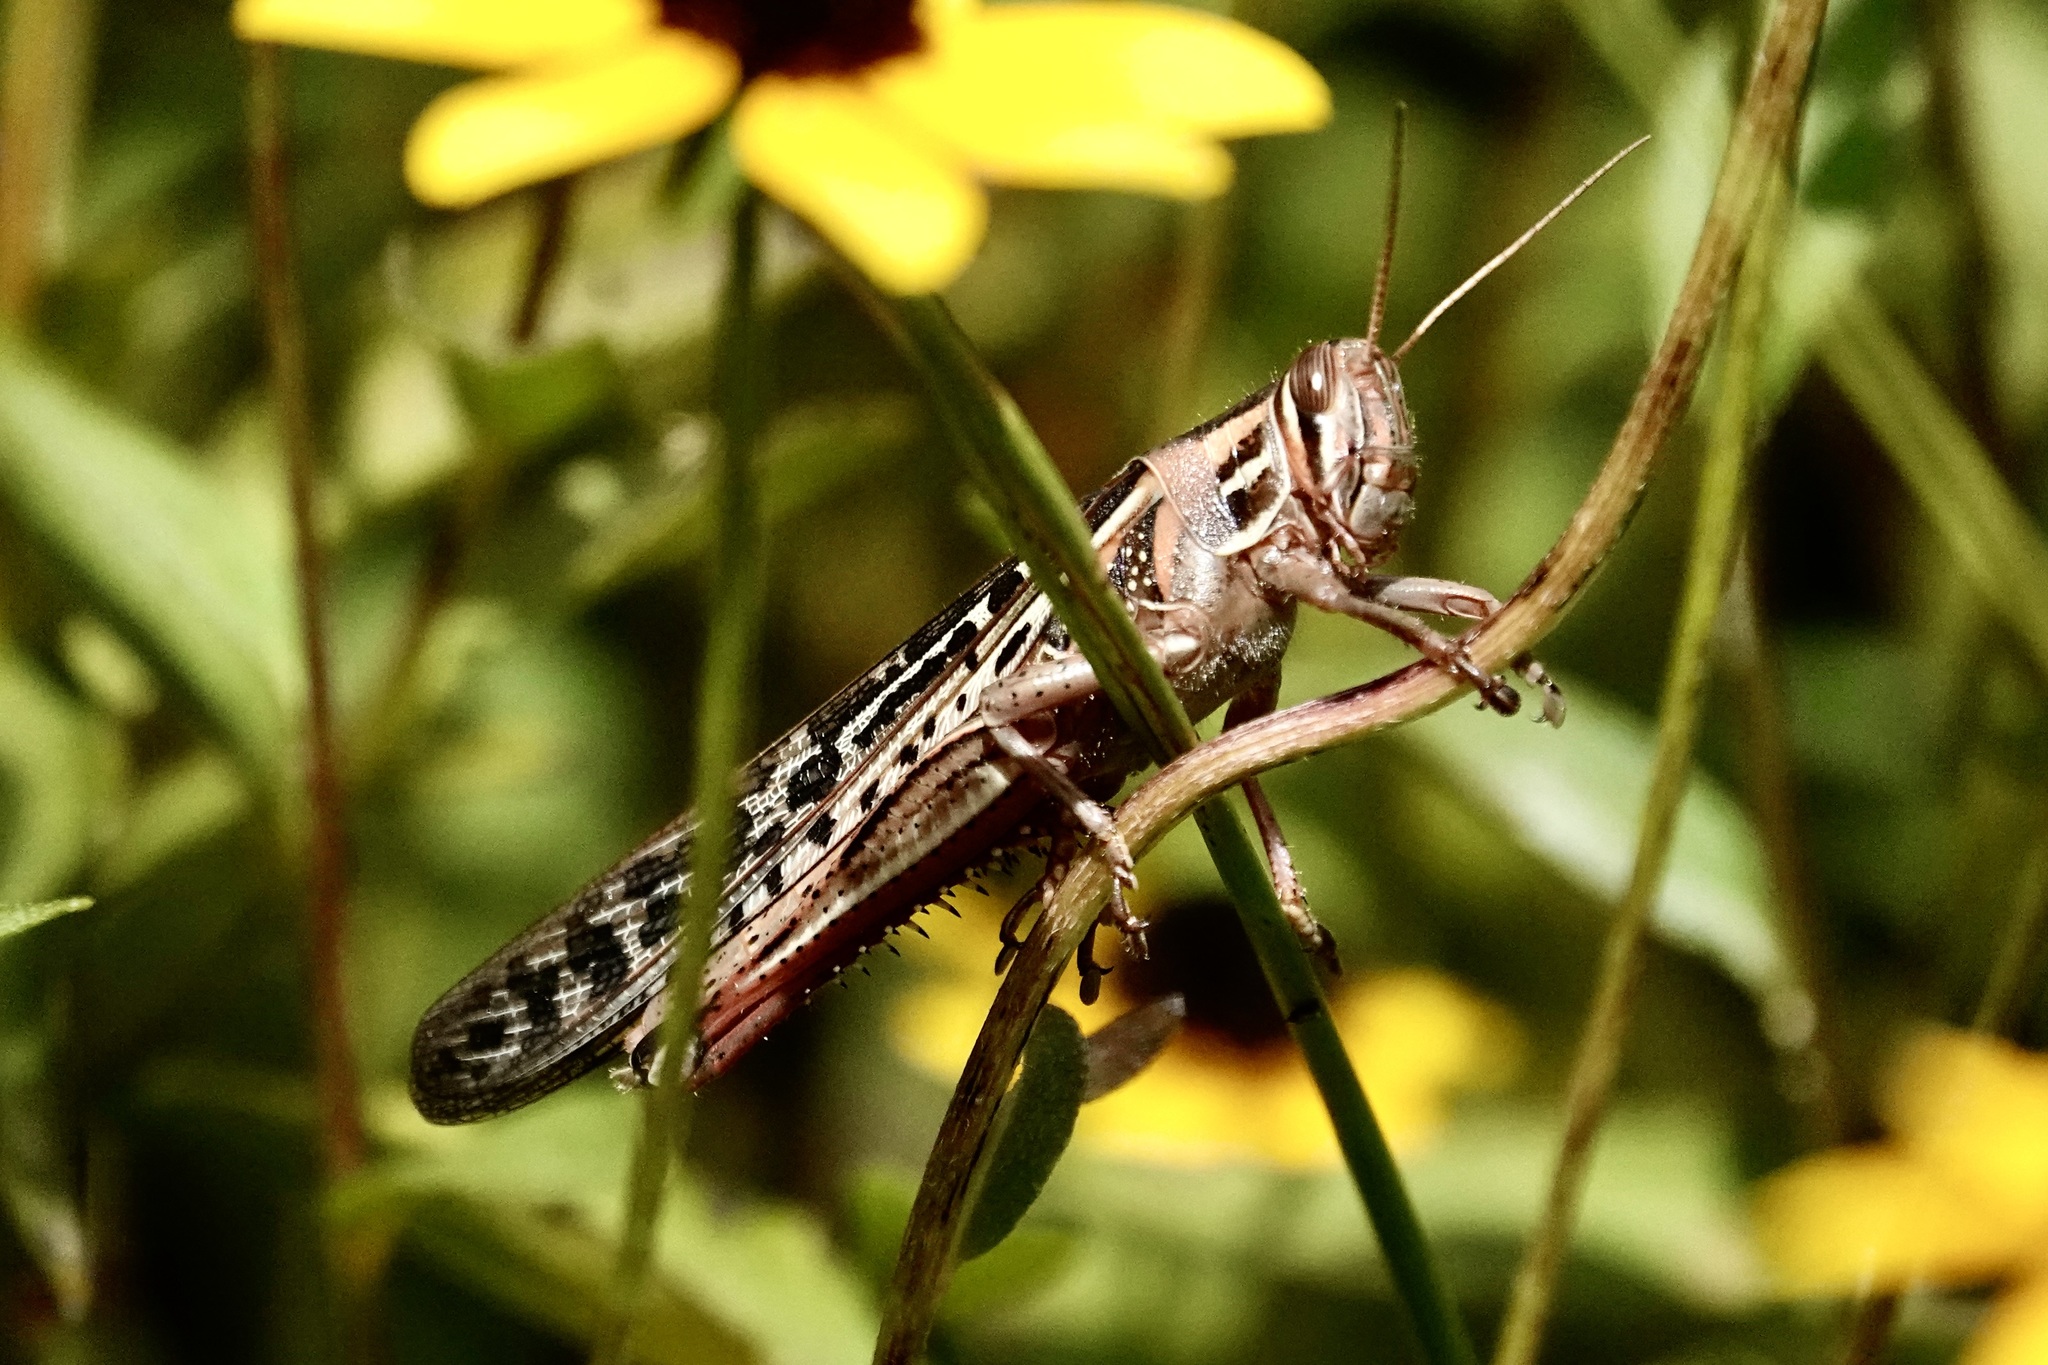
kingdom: Animalia
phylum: Arthropoda
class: Insecta
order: Orthoptera
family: Acrididae
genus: Schistocerca
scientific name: Schistocerca americana
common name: American bird locust
